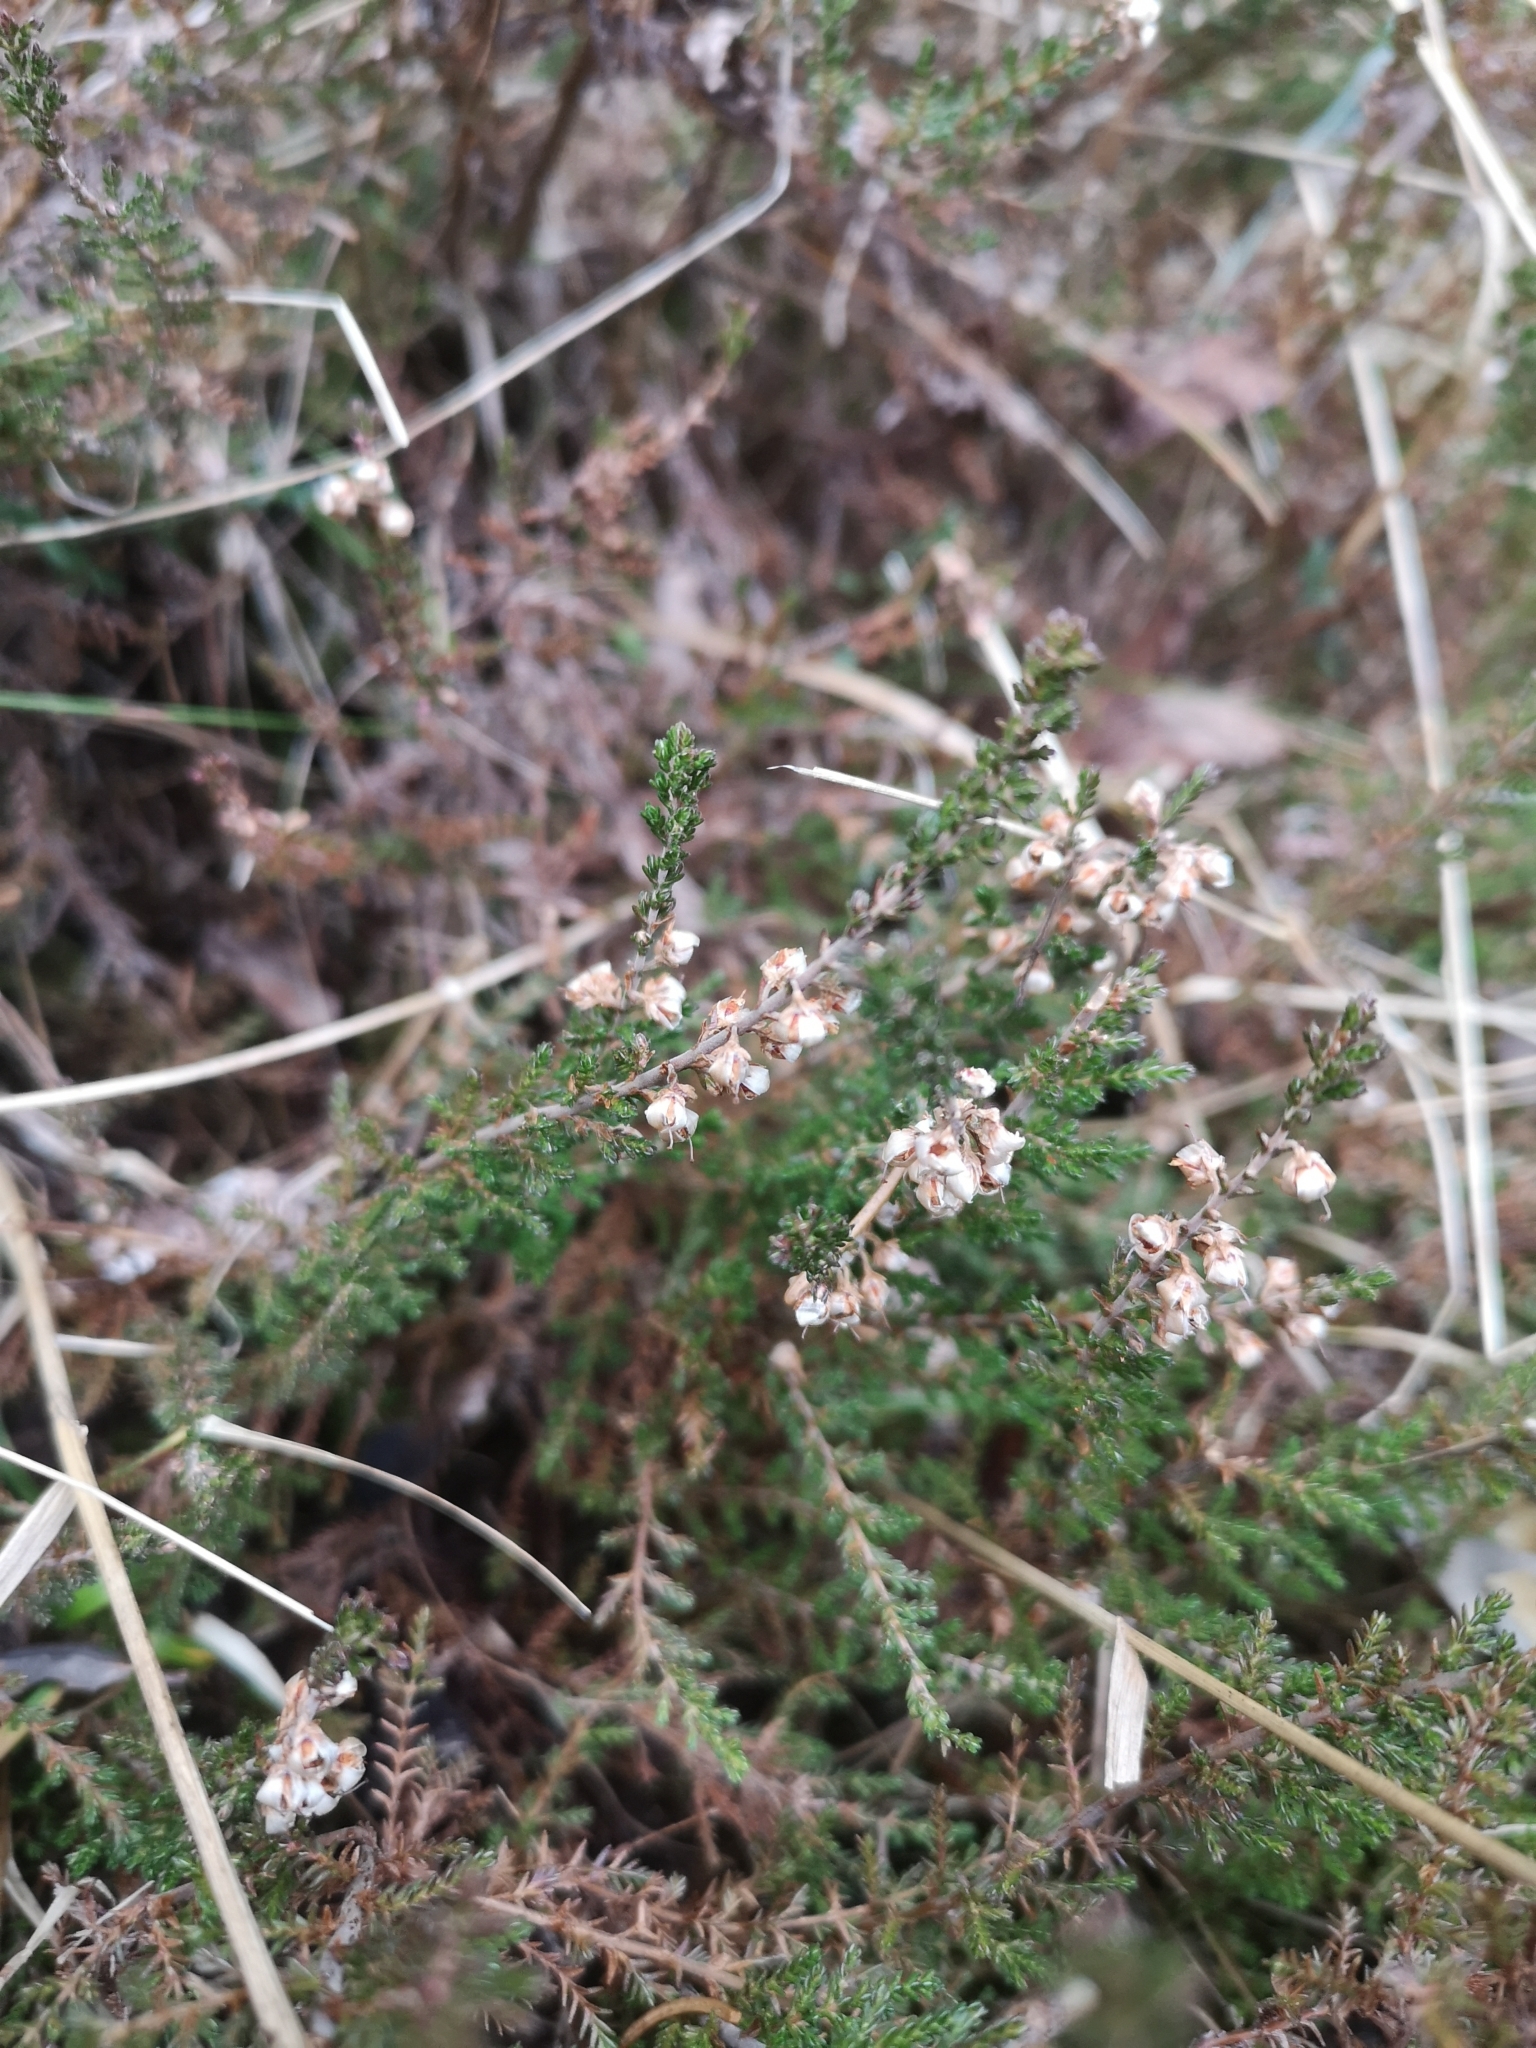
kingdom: Plantae
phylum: Tracheophyta
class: Magnoliopsida
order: Ericales
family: Ericaceae
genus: Calluna
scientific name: Calluna vulgaris
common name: Heather
